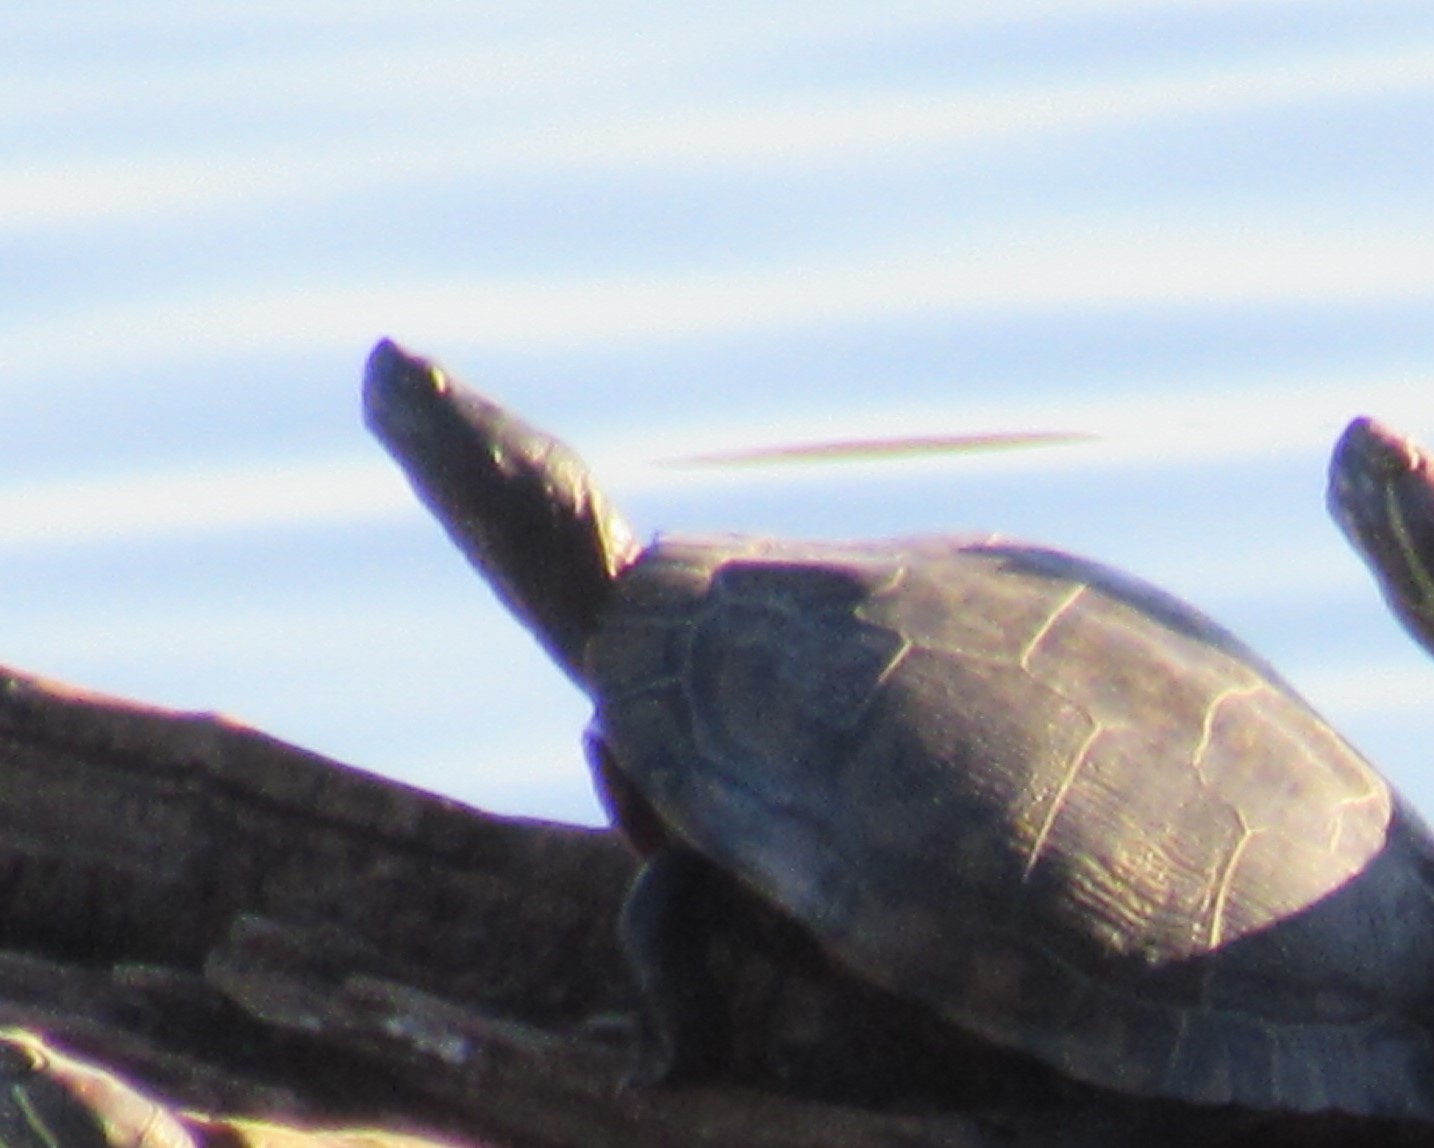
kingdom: Animalia
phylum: Chordata
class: Testudines
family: Emydidae
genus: Trachemys
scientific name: Trachemys scripta
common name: Slider
